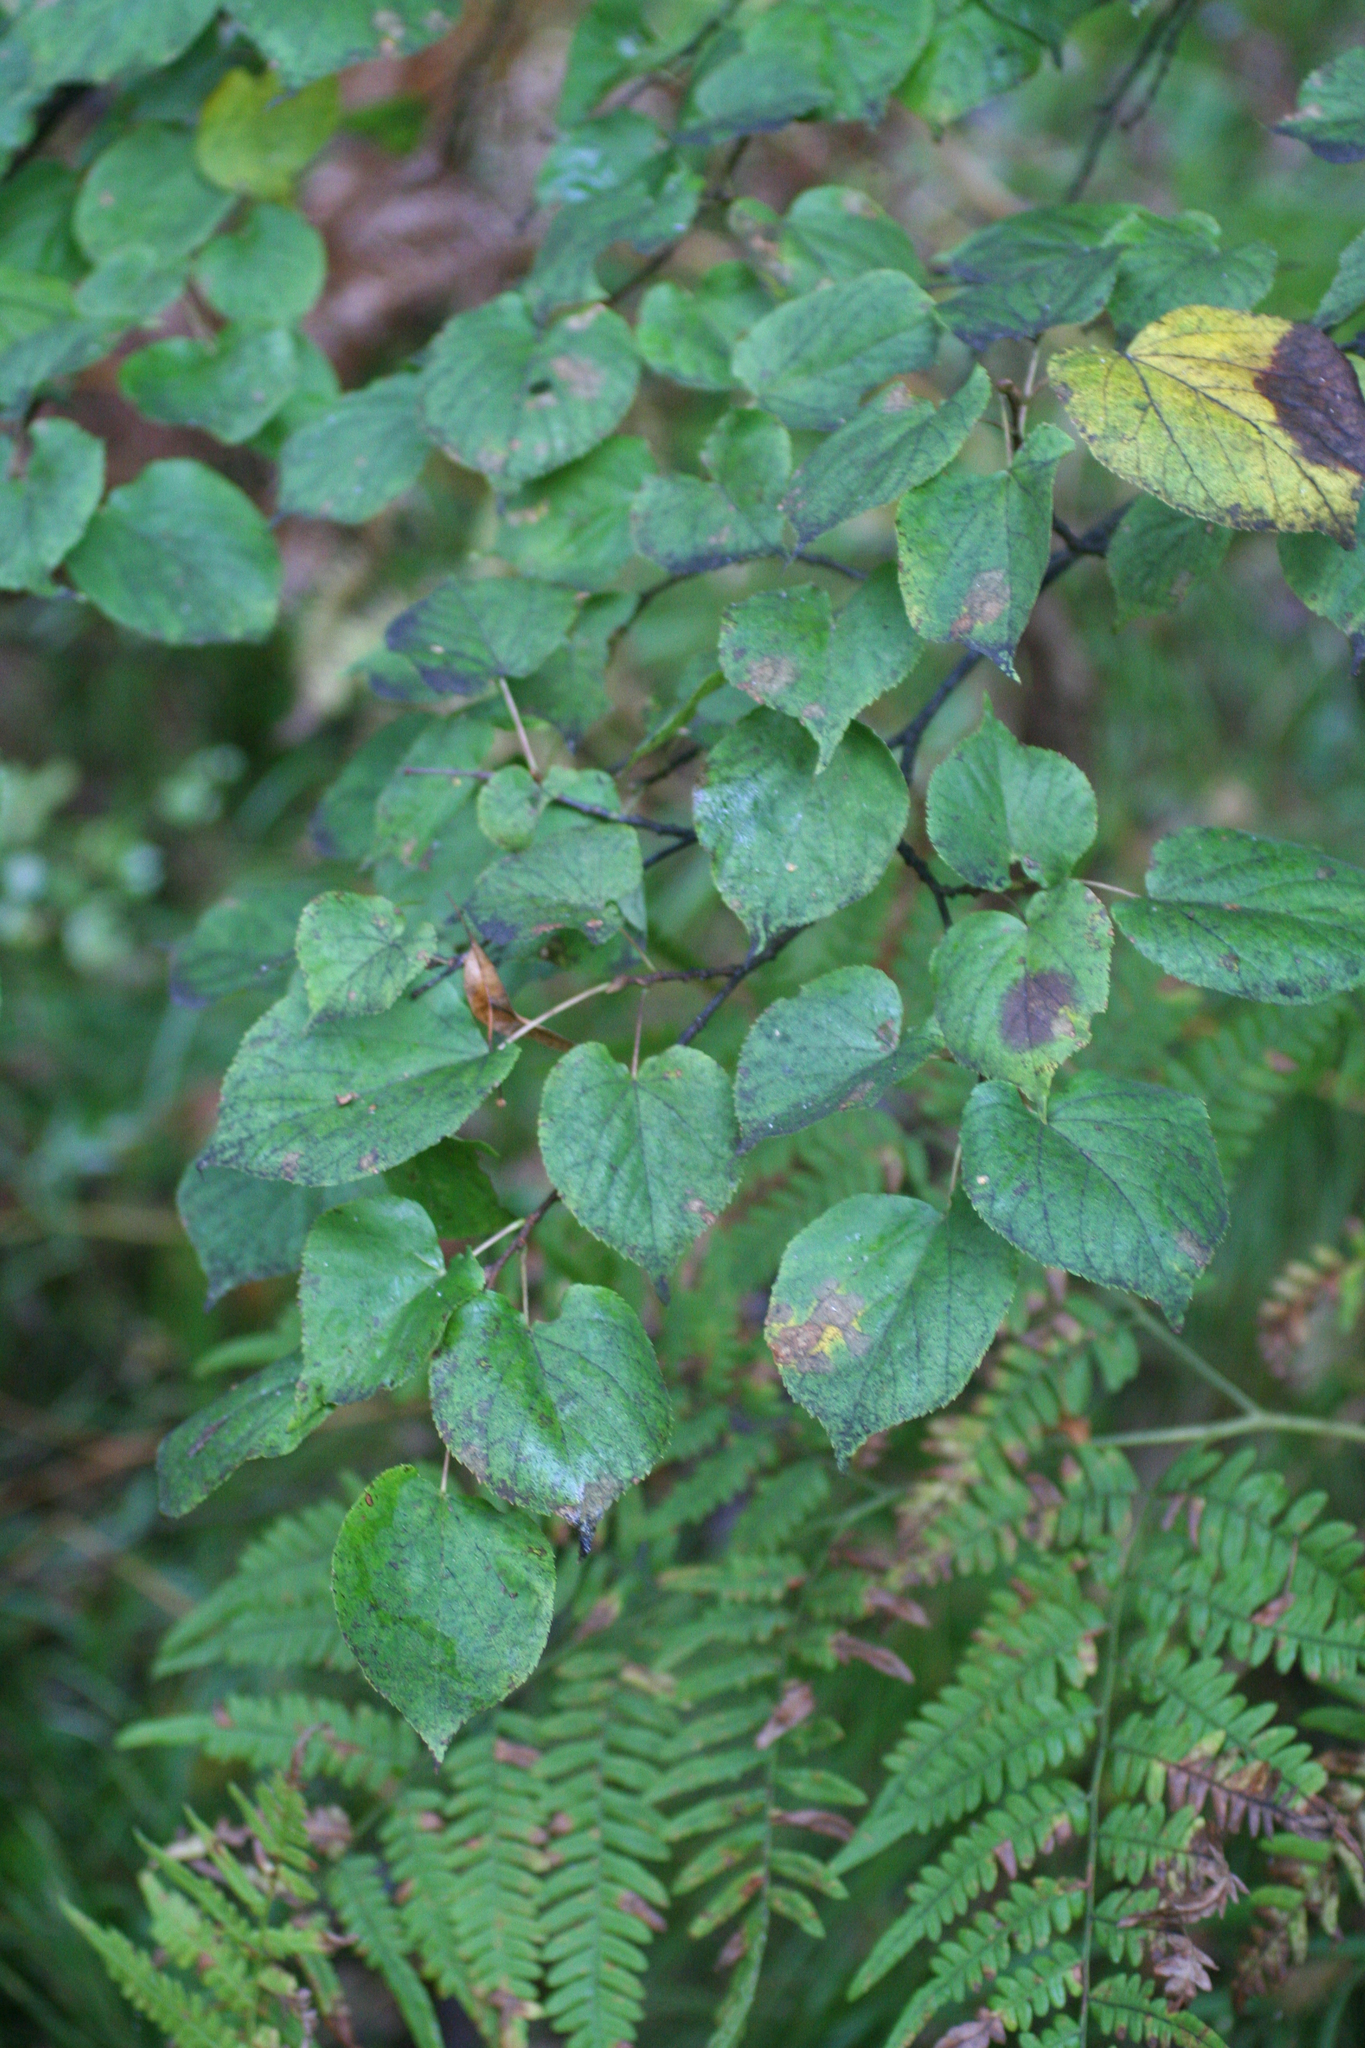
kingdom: Plantae
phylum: Tracheophyta
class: Magnoliopsida
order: Malvales
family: Malvaceae
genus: Tilia
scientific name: Tilia cordata
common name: Small-leaved lime
